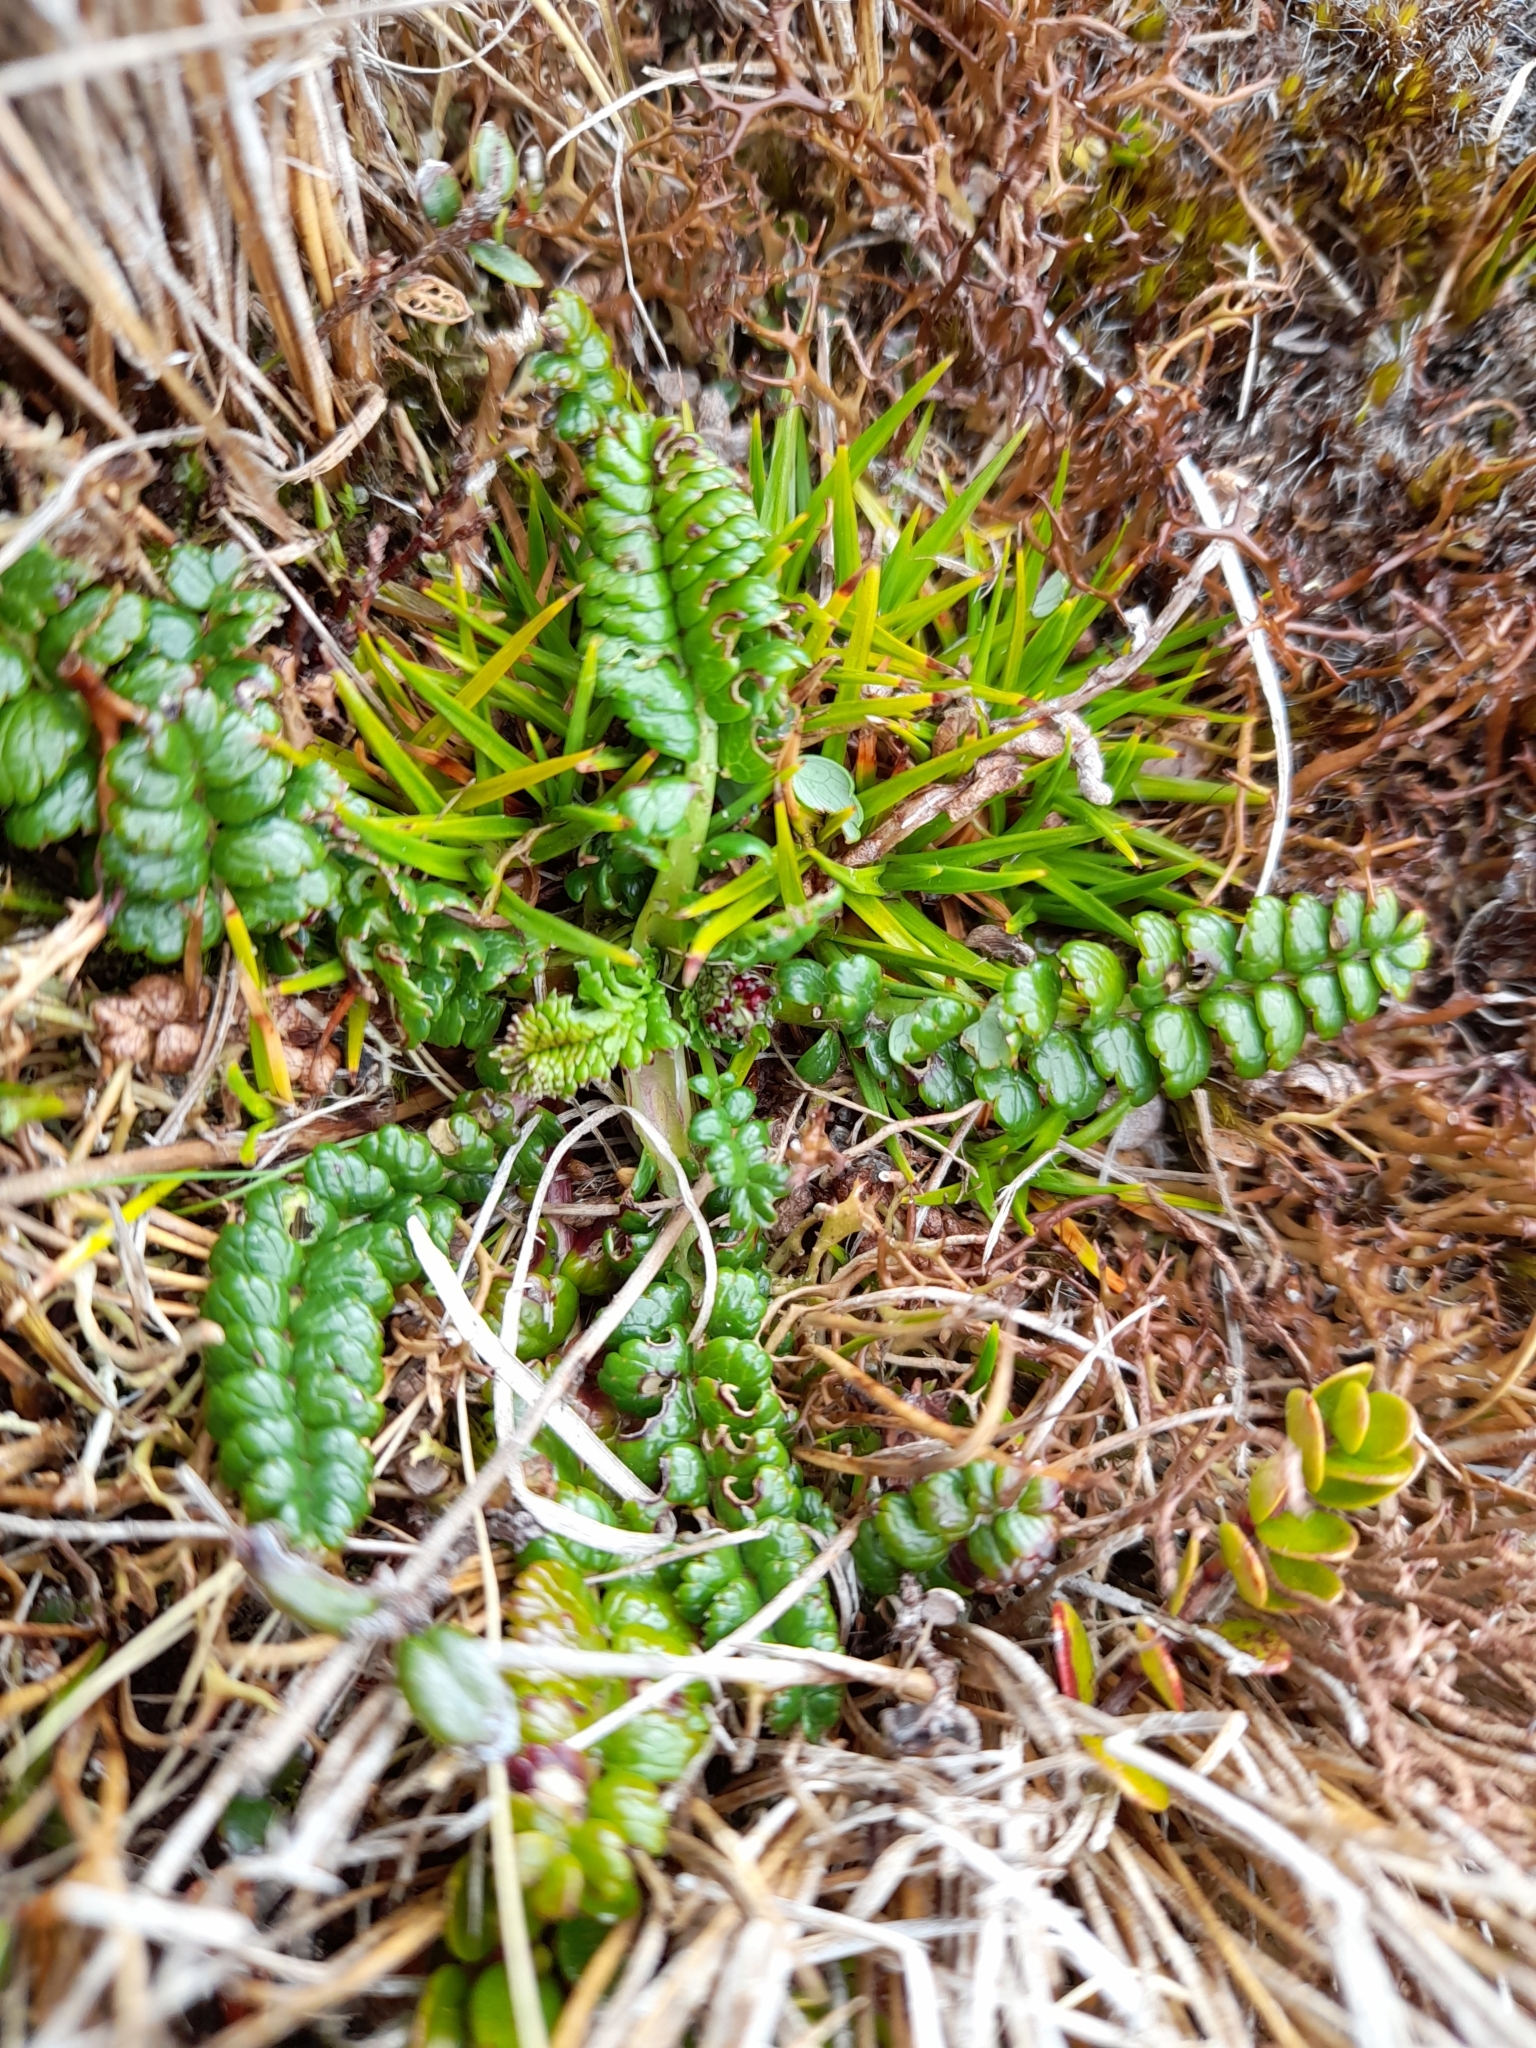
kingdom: Plantae
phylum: Tracheophyta
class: Magnoliopsida
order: Rosales
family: Rosaceae
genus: Acaena
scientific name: Acaena pumila
